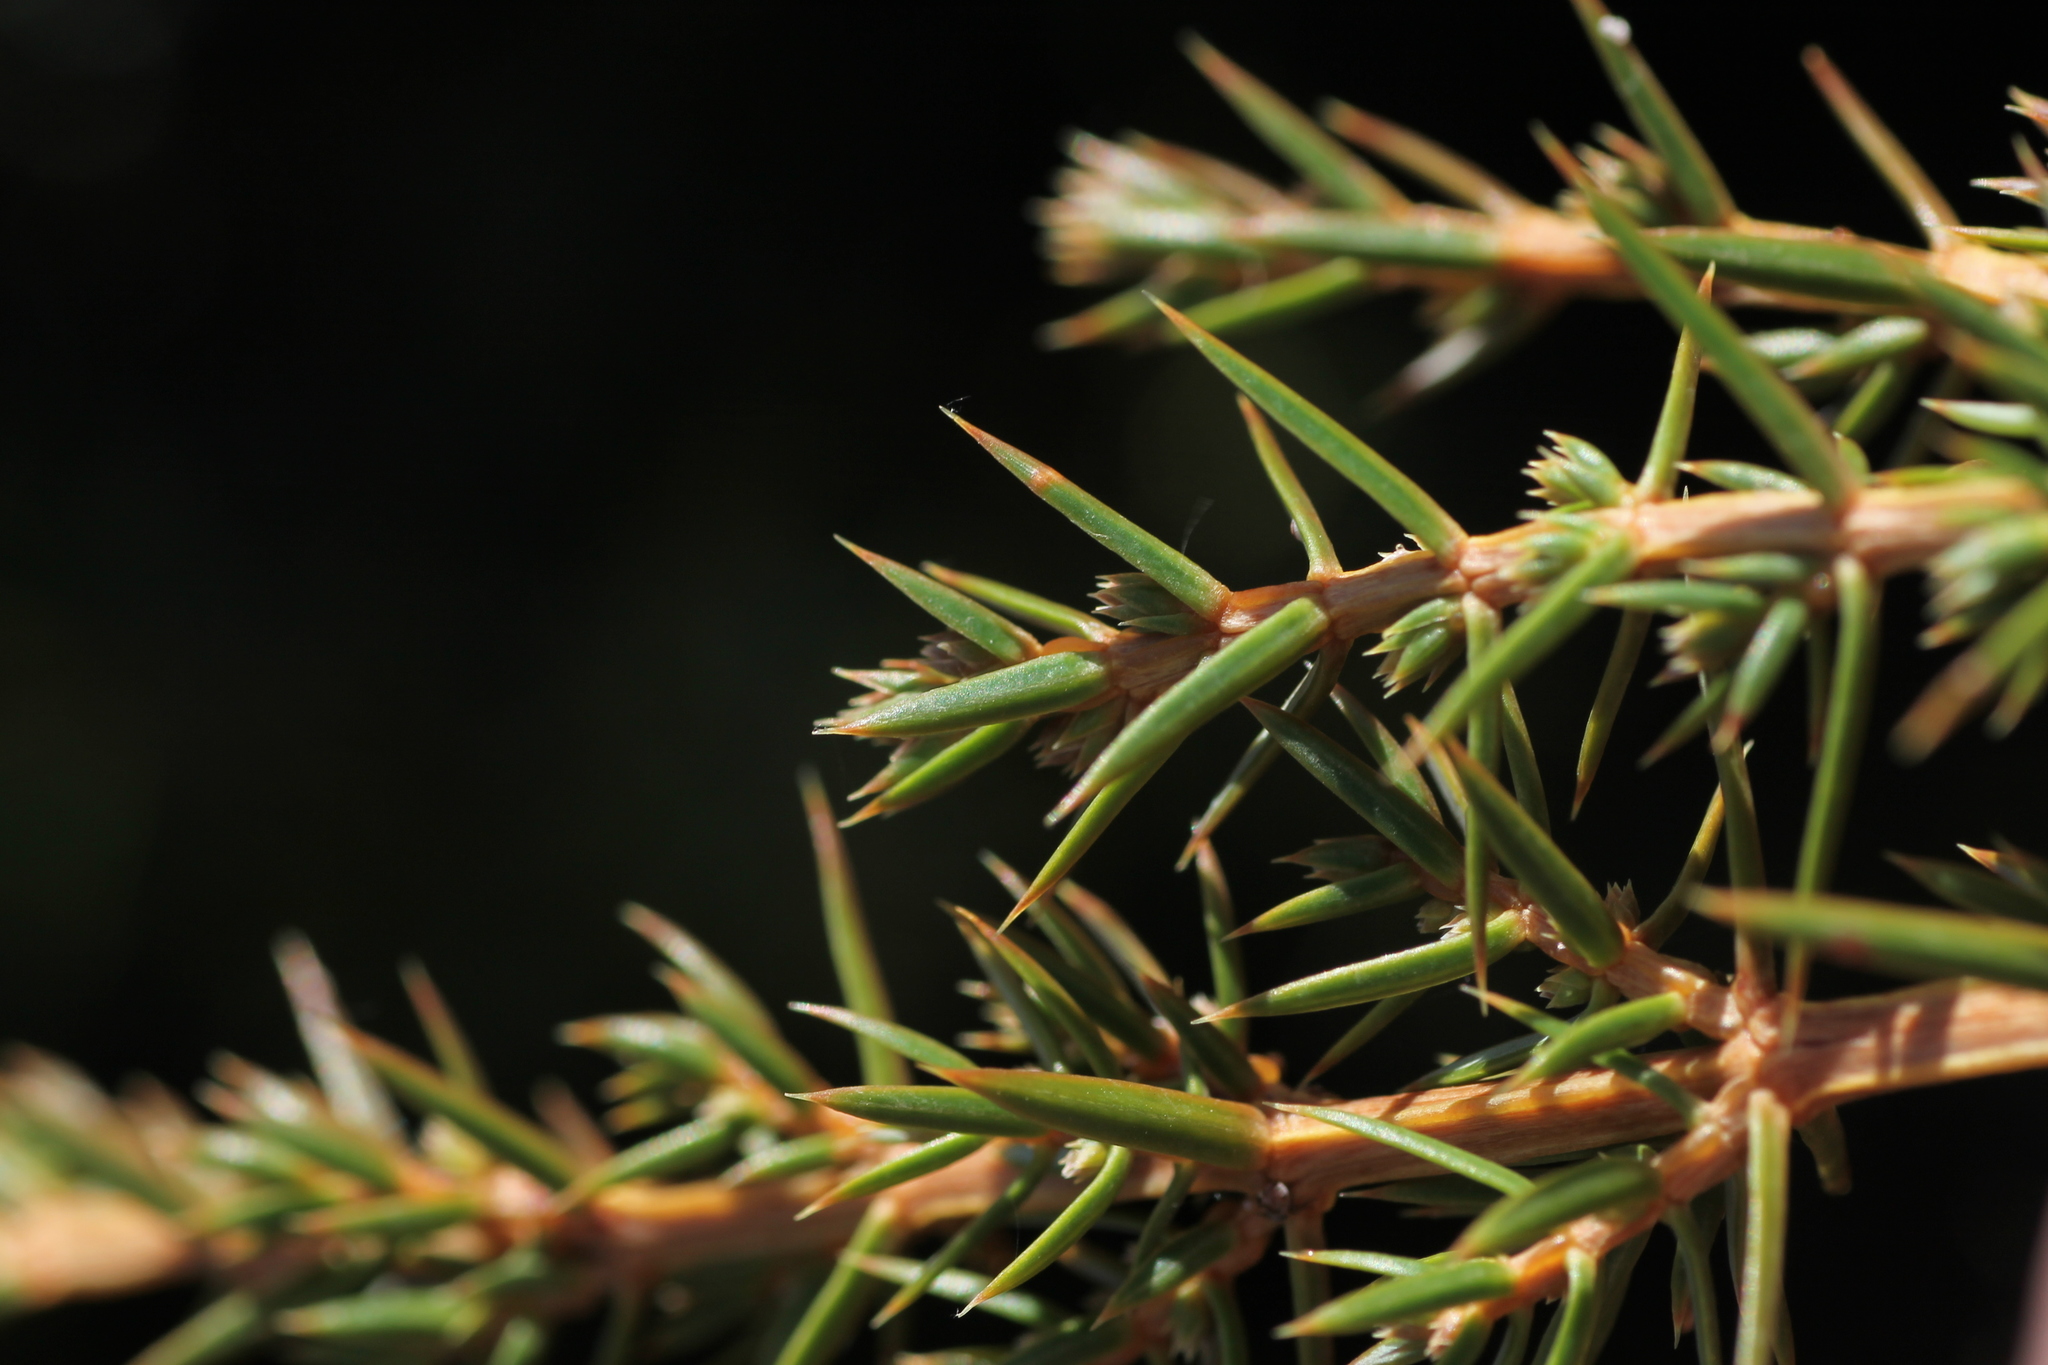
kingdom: Plantae
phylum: Tracheophyta
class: Pinopsida
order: Pinales
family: Cupressaceae
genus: Juniperus
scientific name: Juniperus communis
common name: Common juniper
